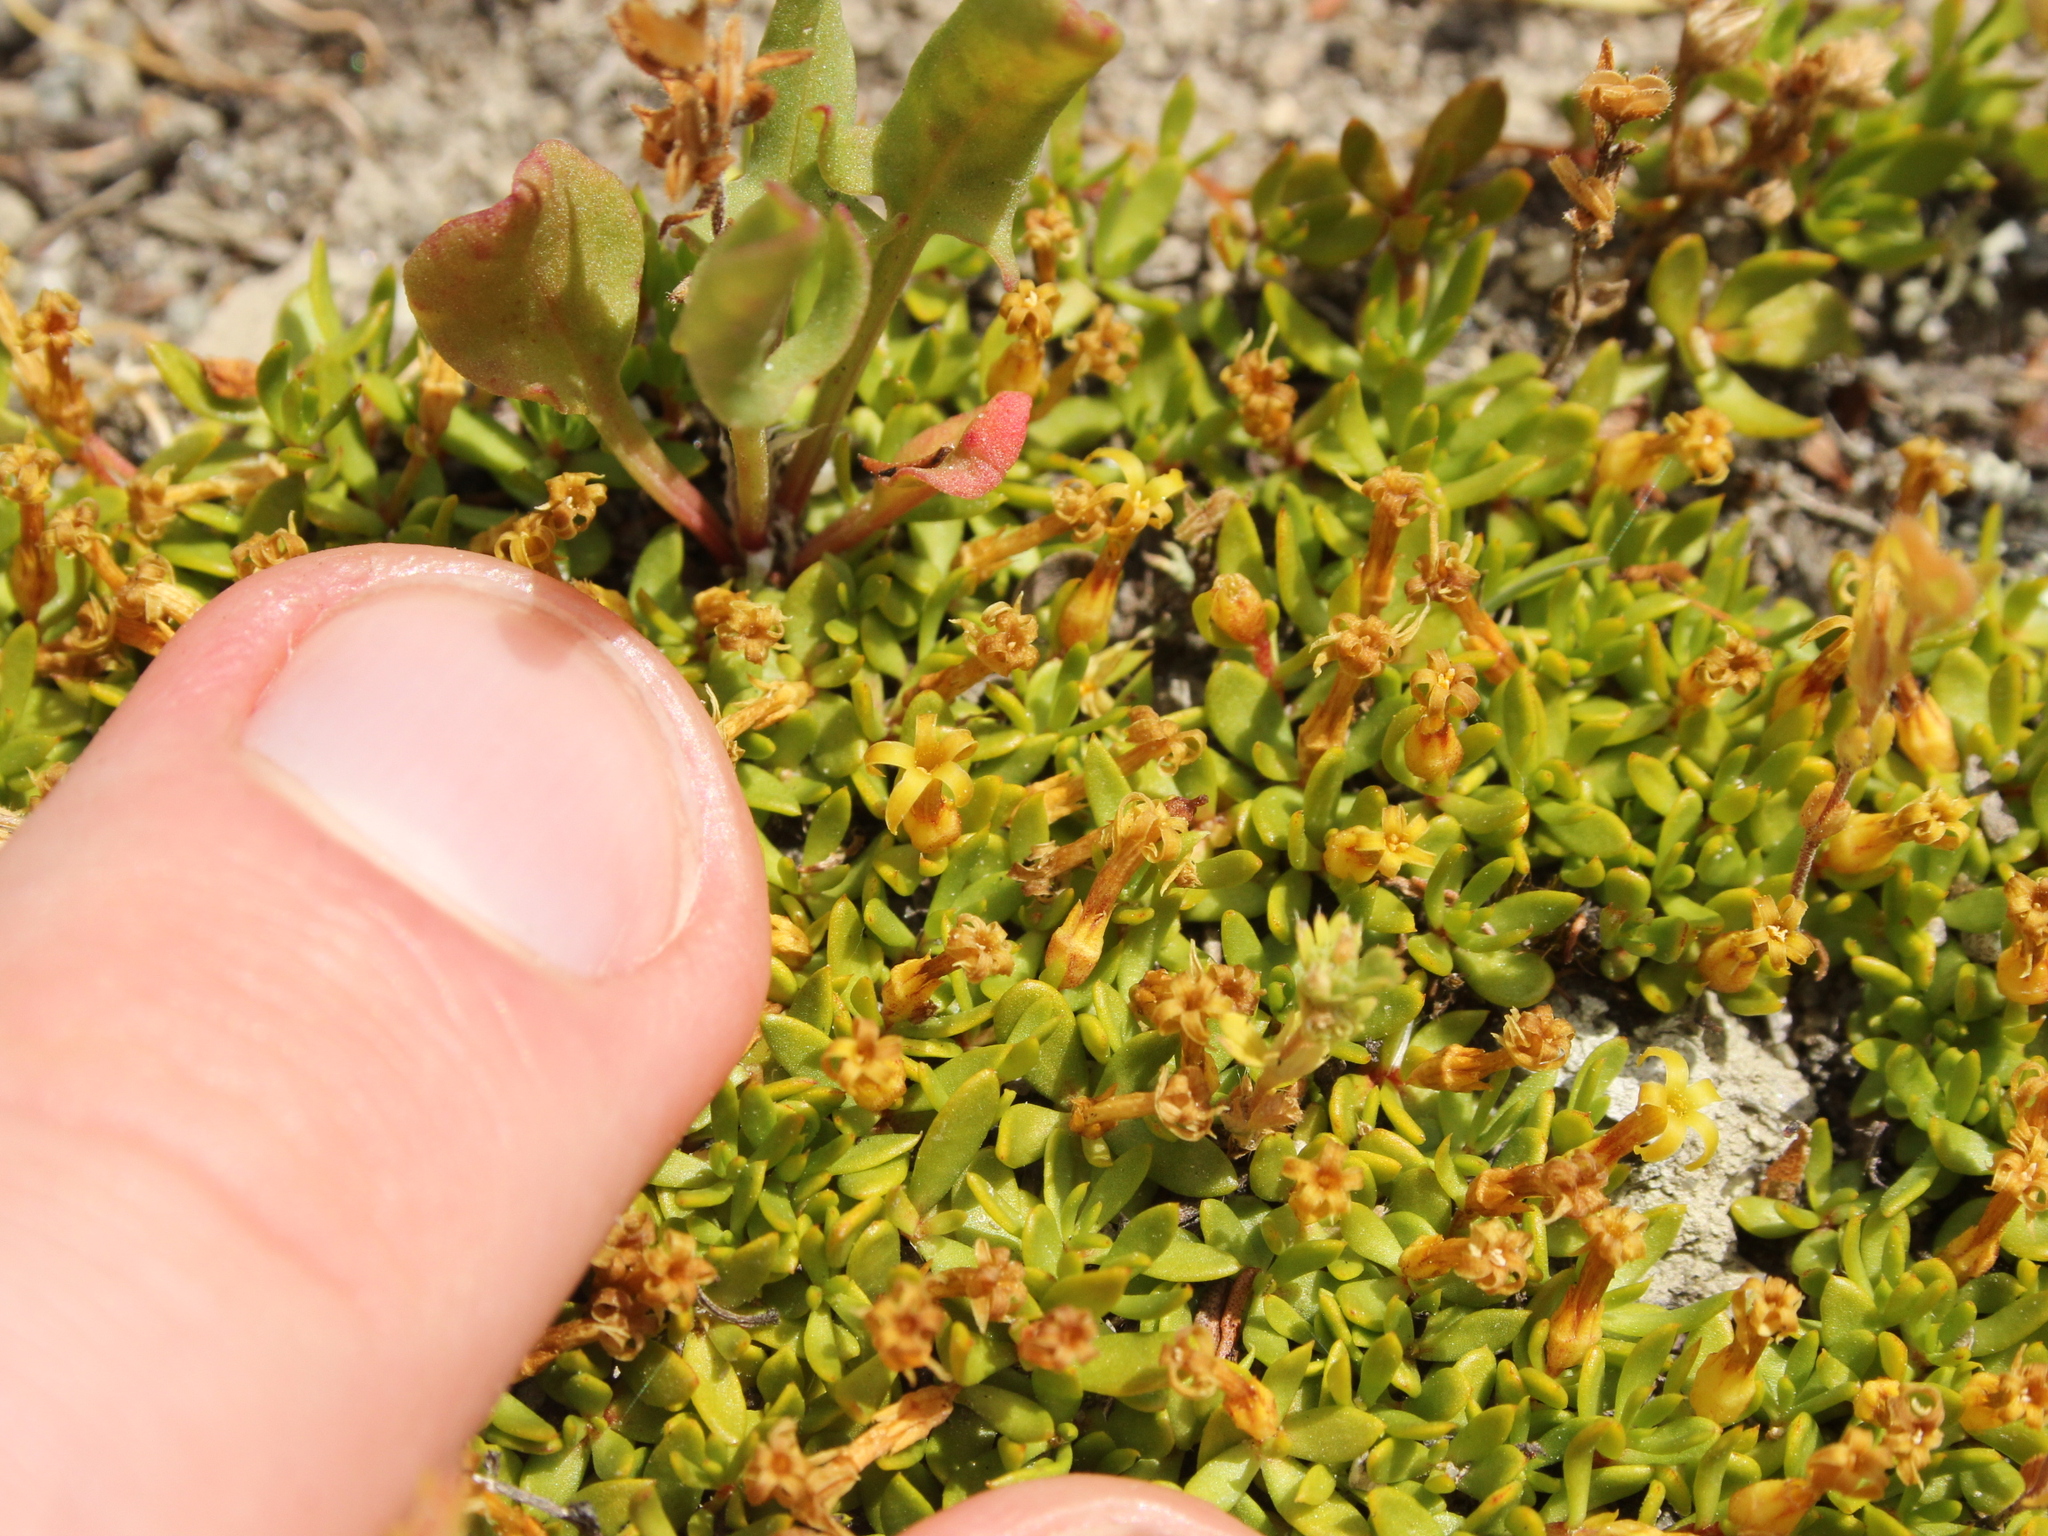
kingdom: Plantae
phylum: Tracheophyta
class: Magnoliopsida
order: Celastrales
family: Celastraceae
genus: Stackhousia
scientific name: Stackhousia minima
